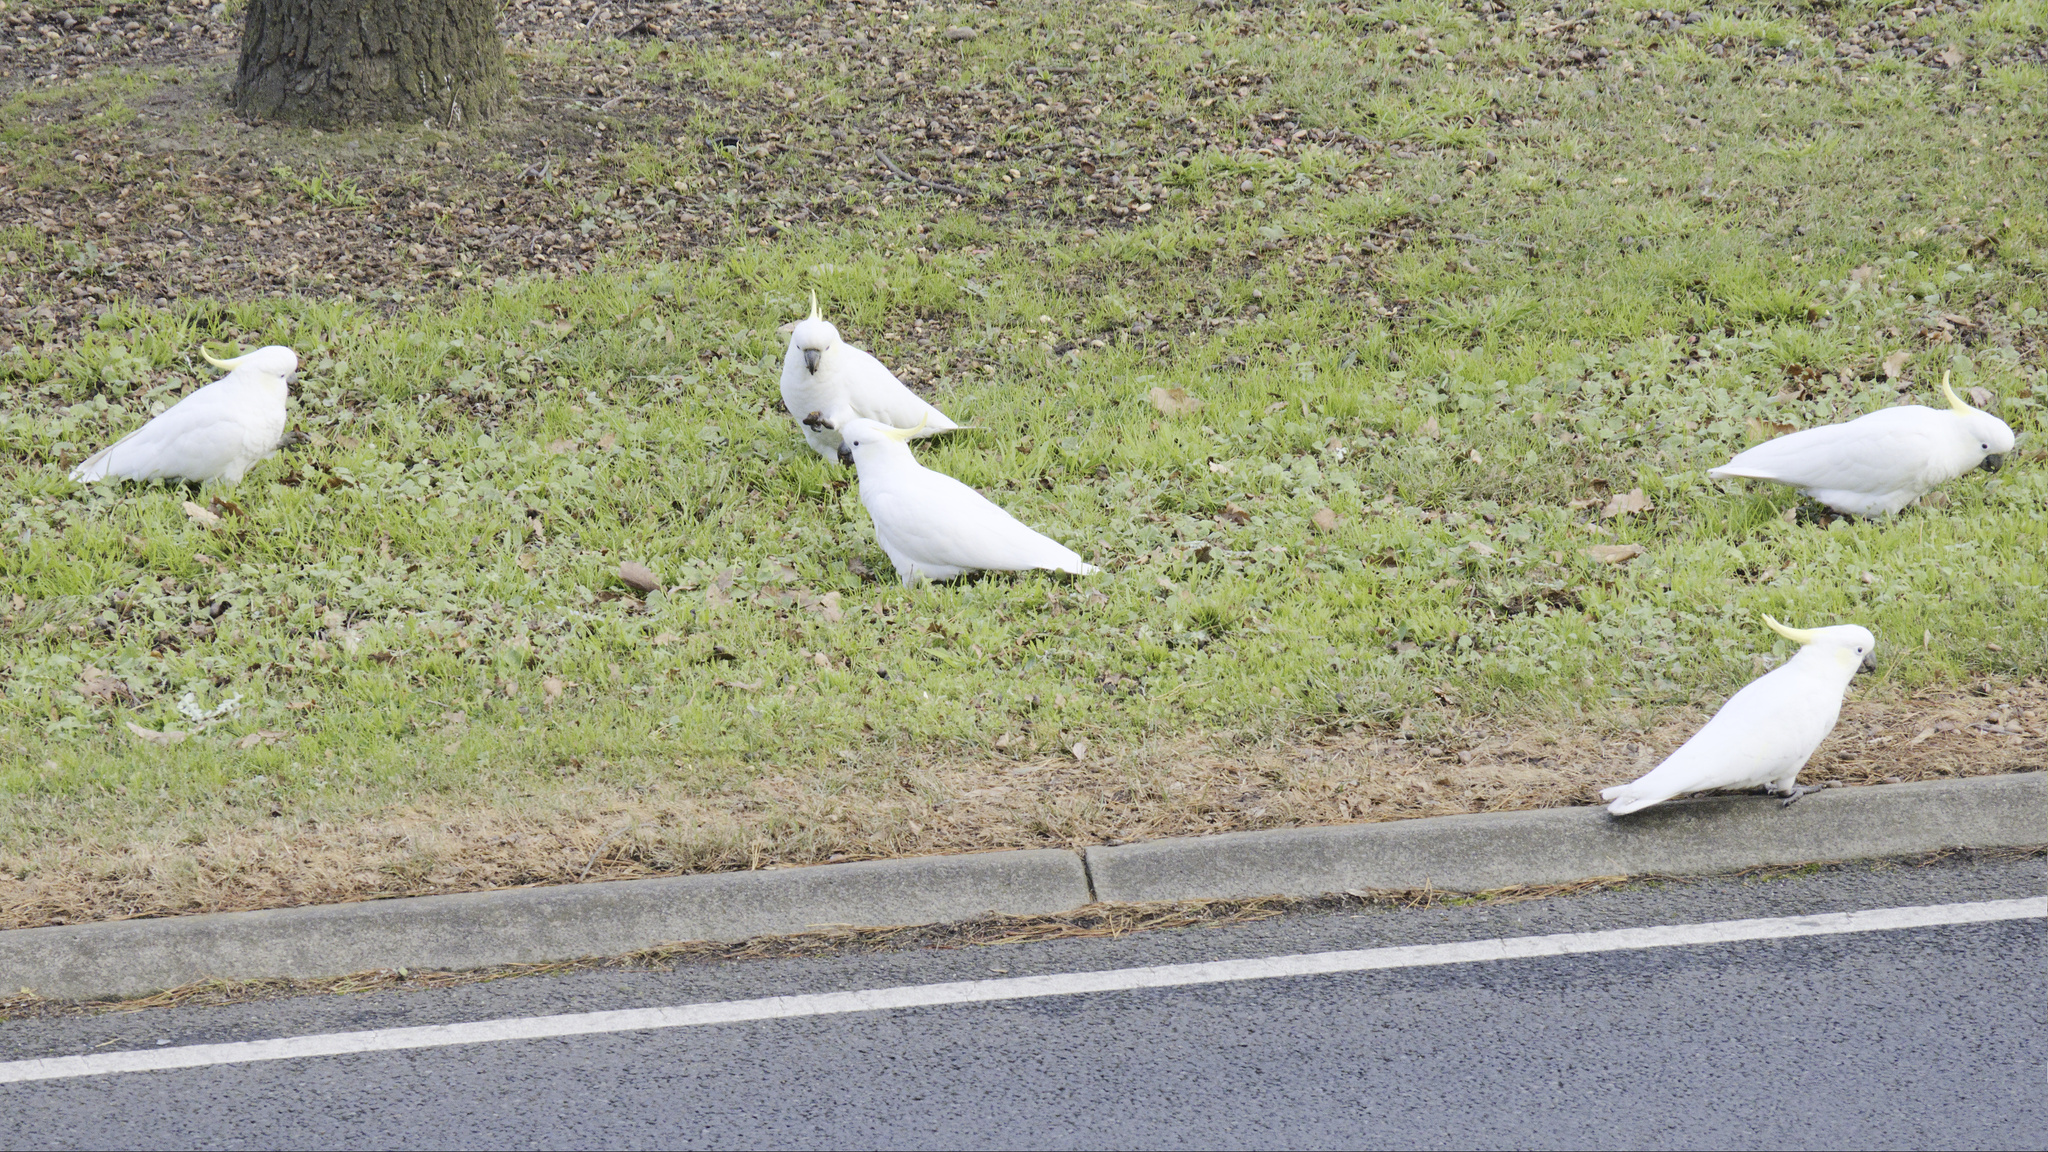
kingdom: Animalia
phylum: Chordata
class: Aves
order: Psittaciformes
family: Psittacidae
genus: Cacatua
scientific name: Cacatua galerita
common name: Sulphur-crested cockatoo
